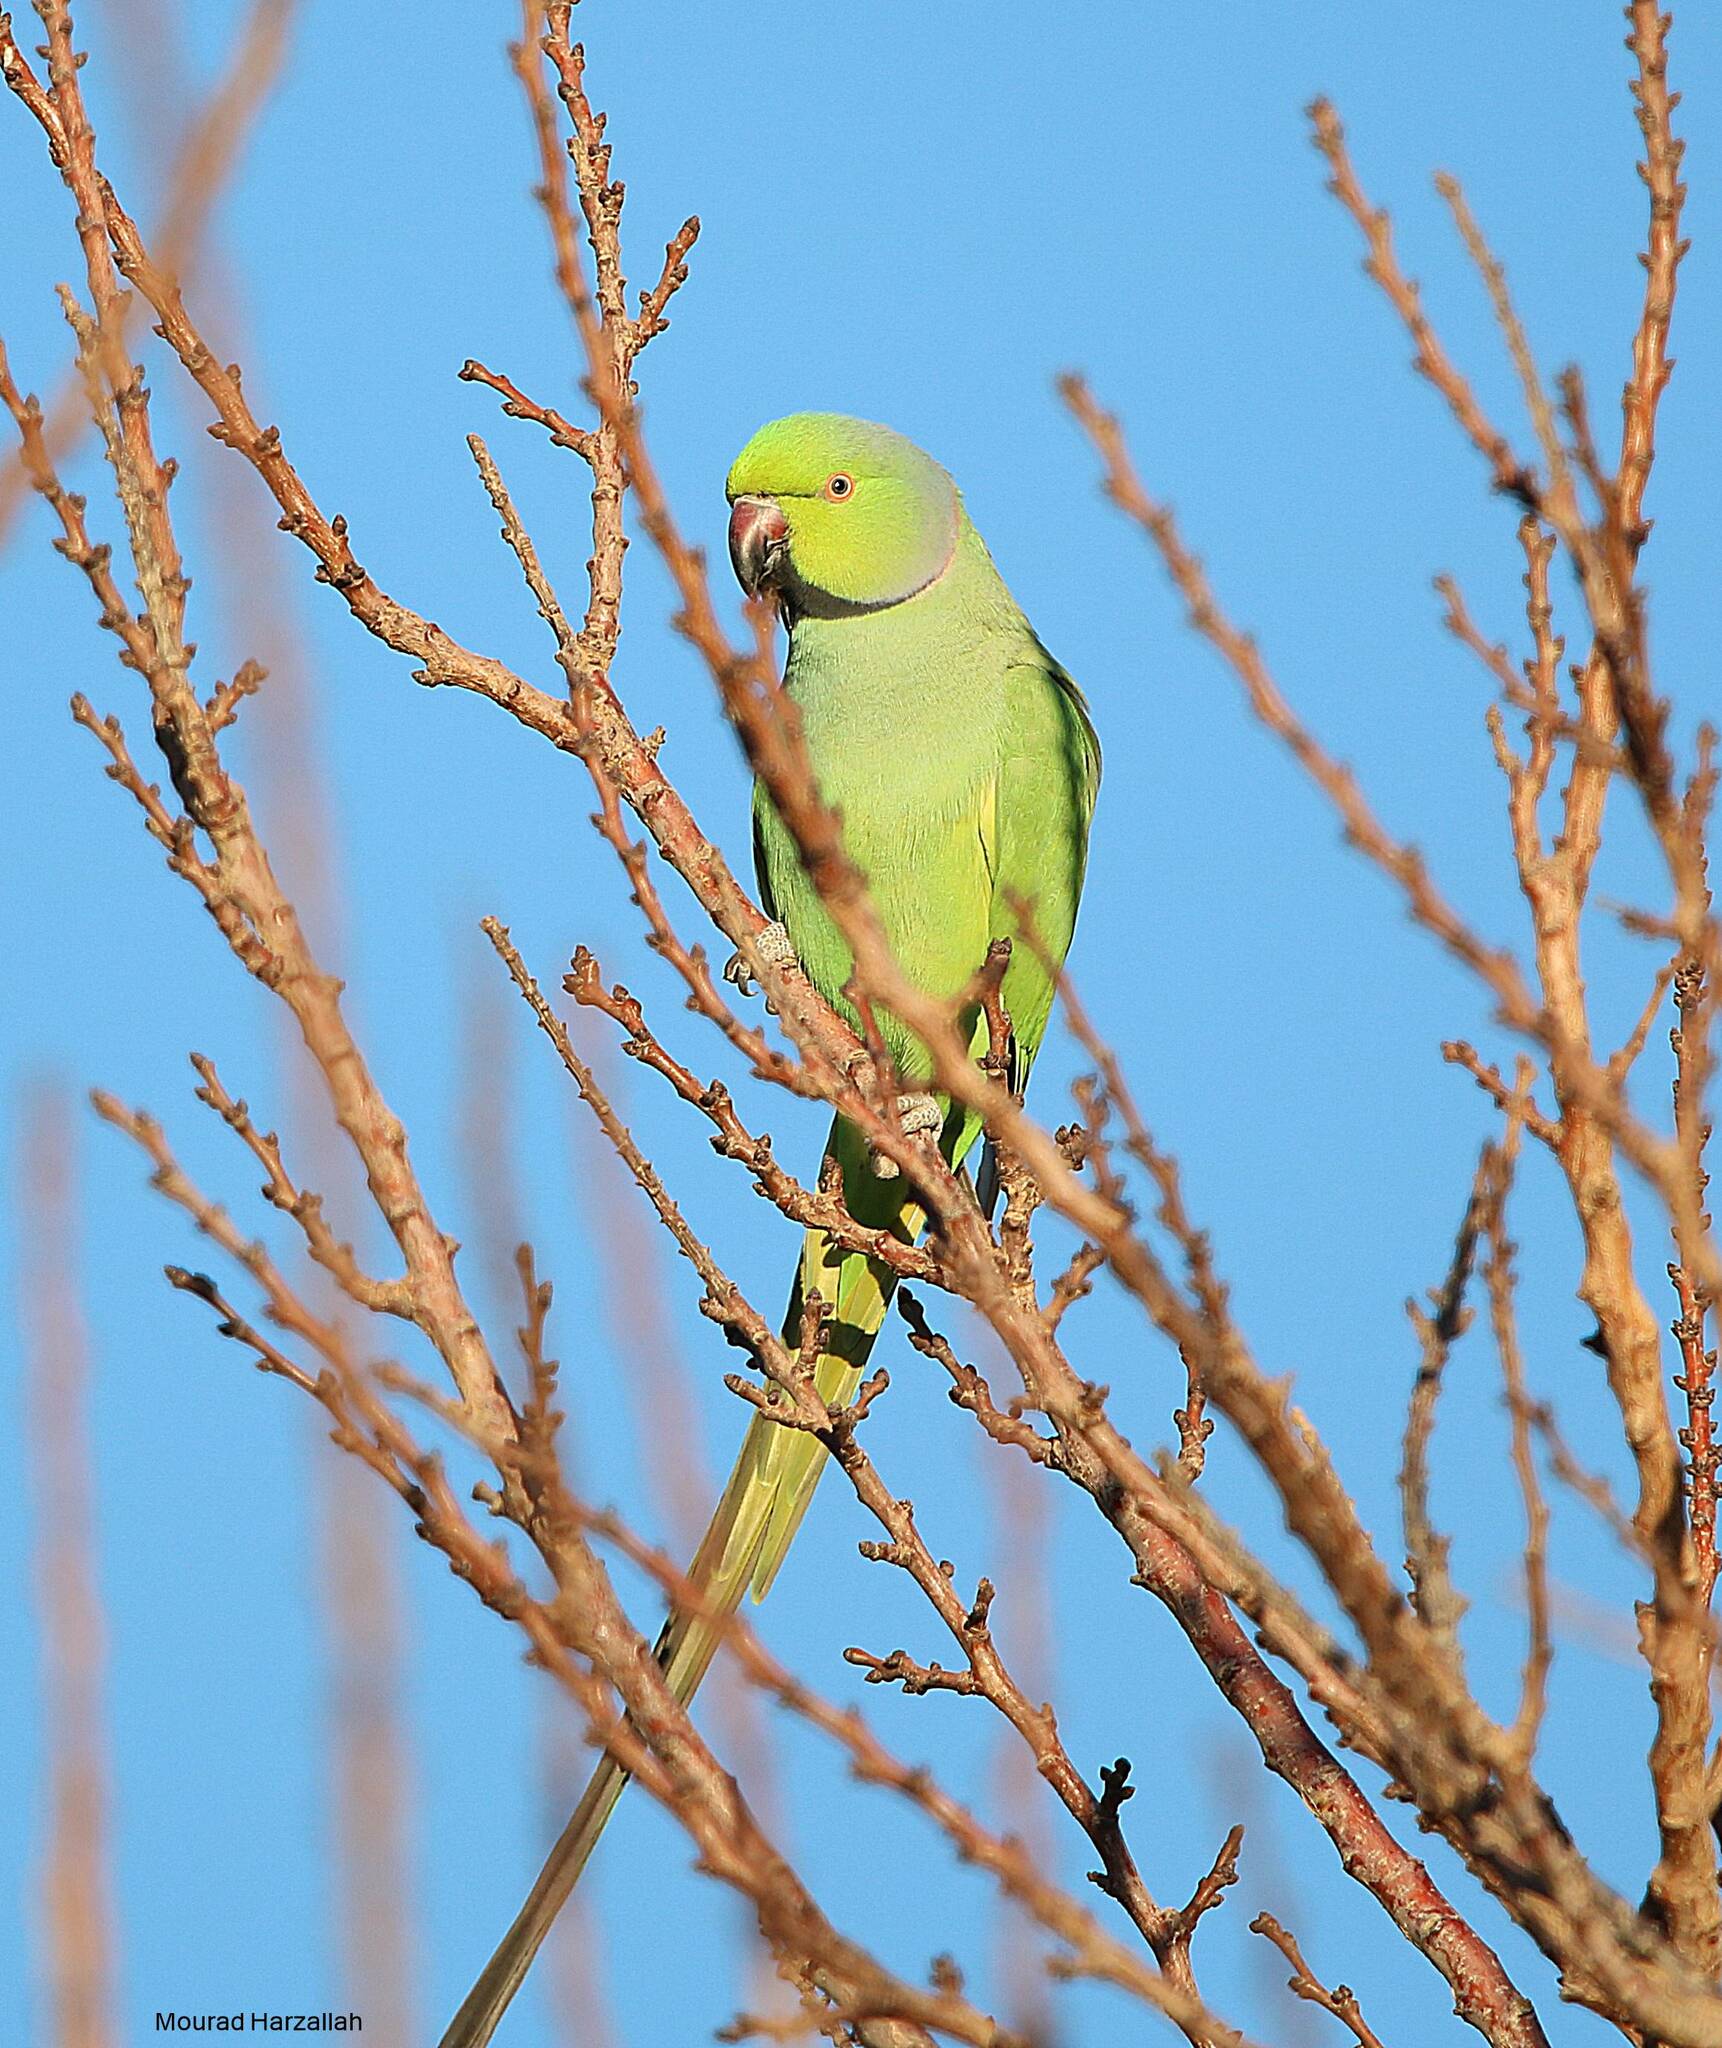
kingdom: Animalia
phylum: Chordata
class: Aves
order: Psittaciformes
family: Psittacidae
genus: Psittacula
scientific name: Psittacula krameri
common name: Rose-ringed parakeet
